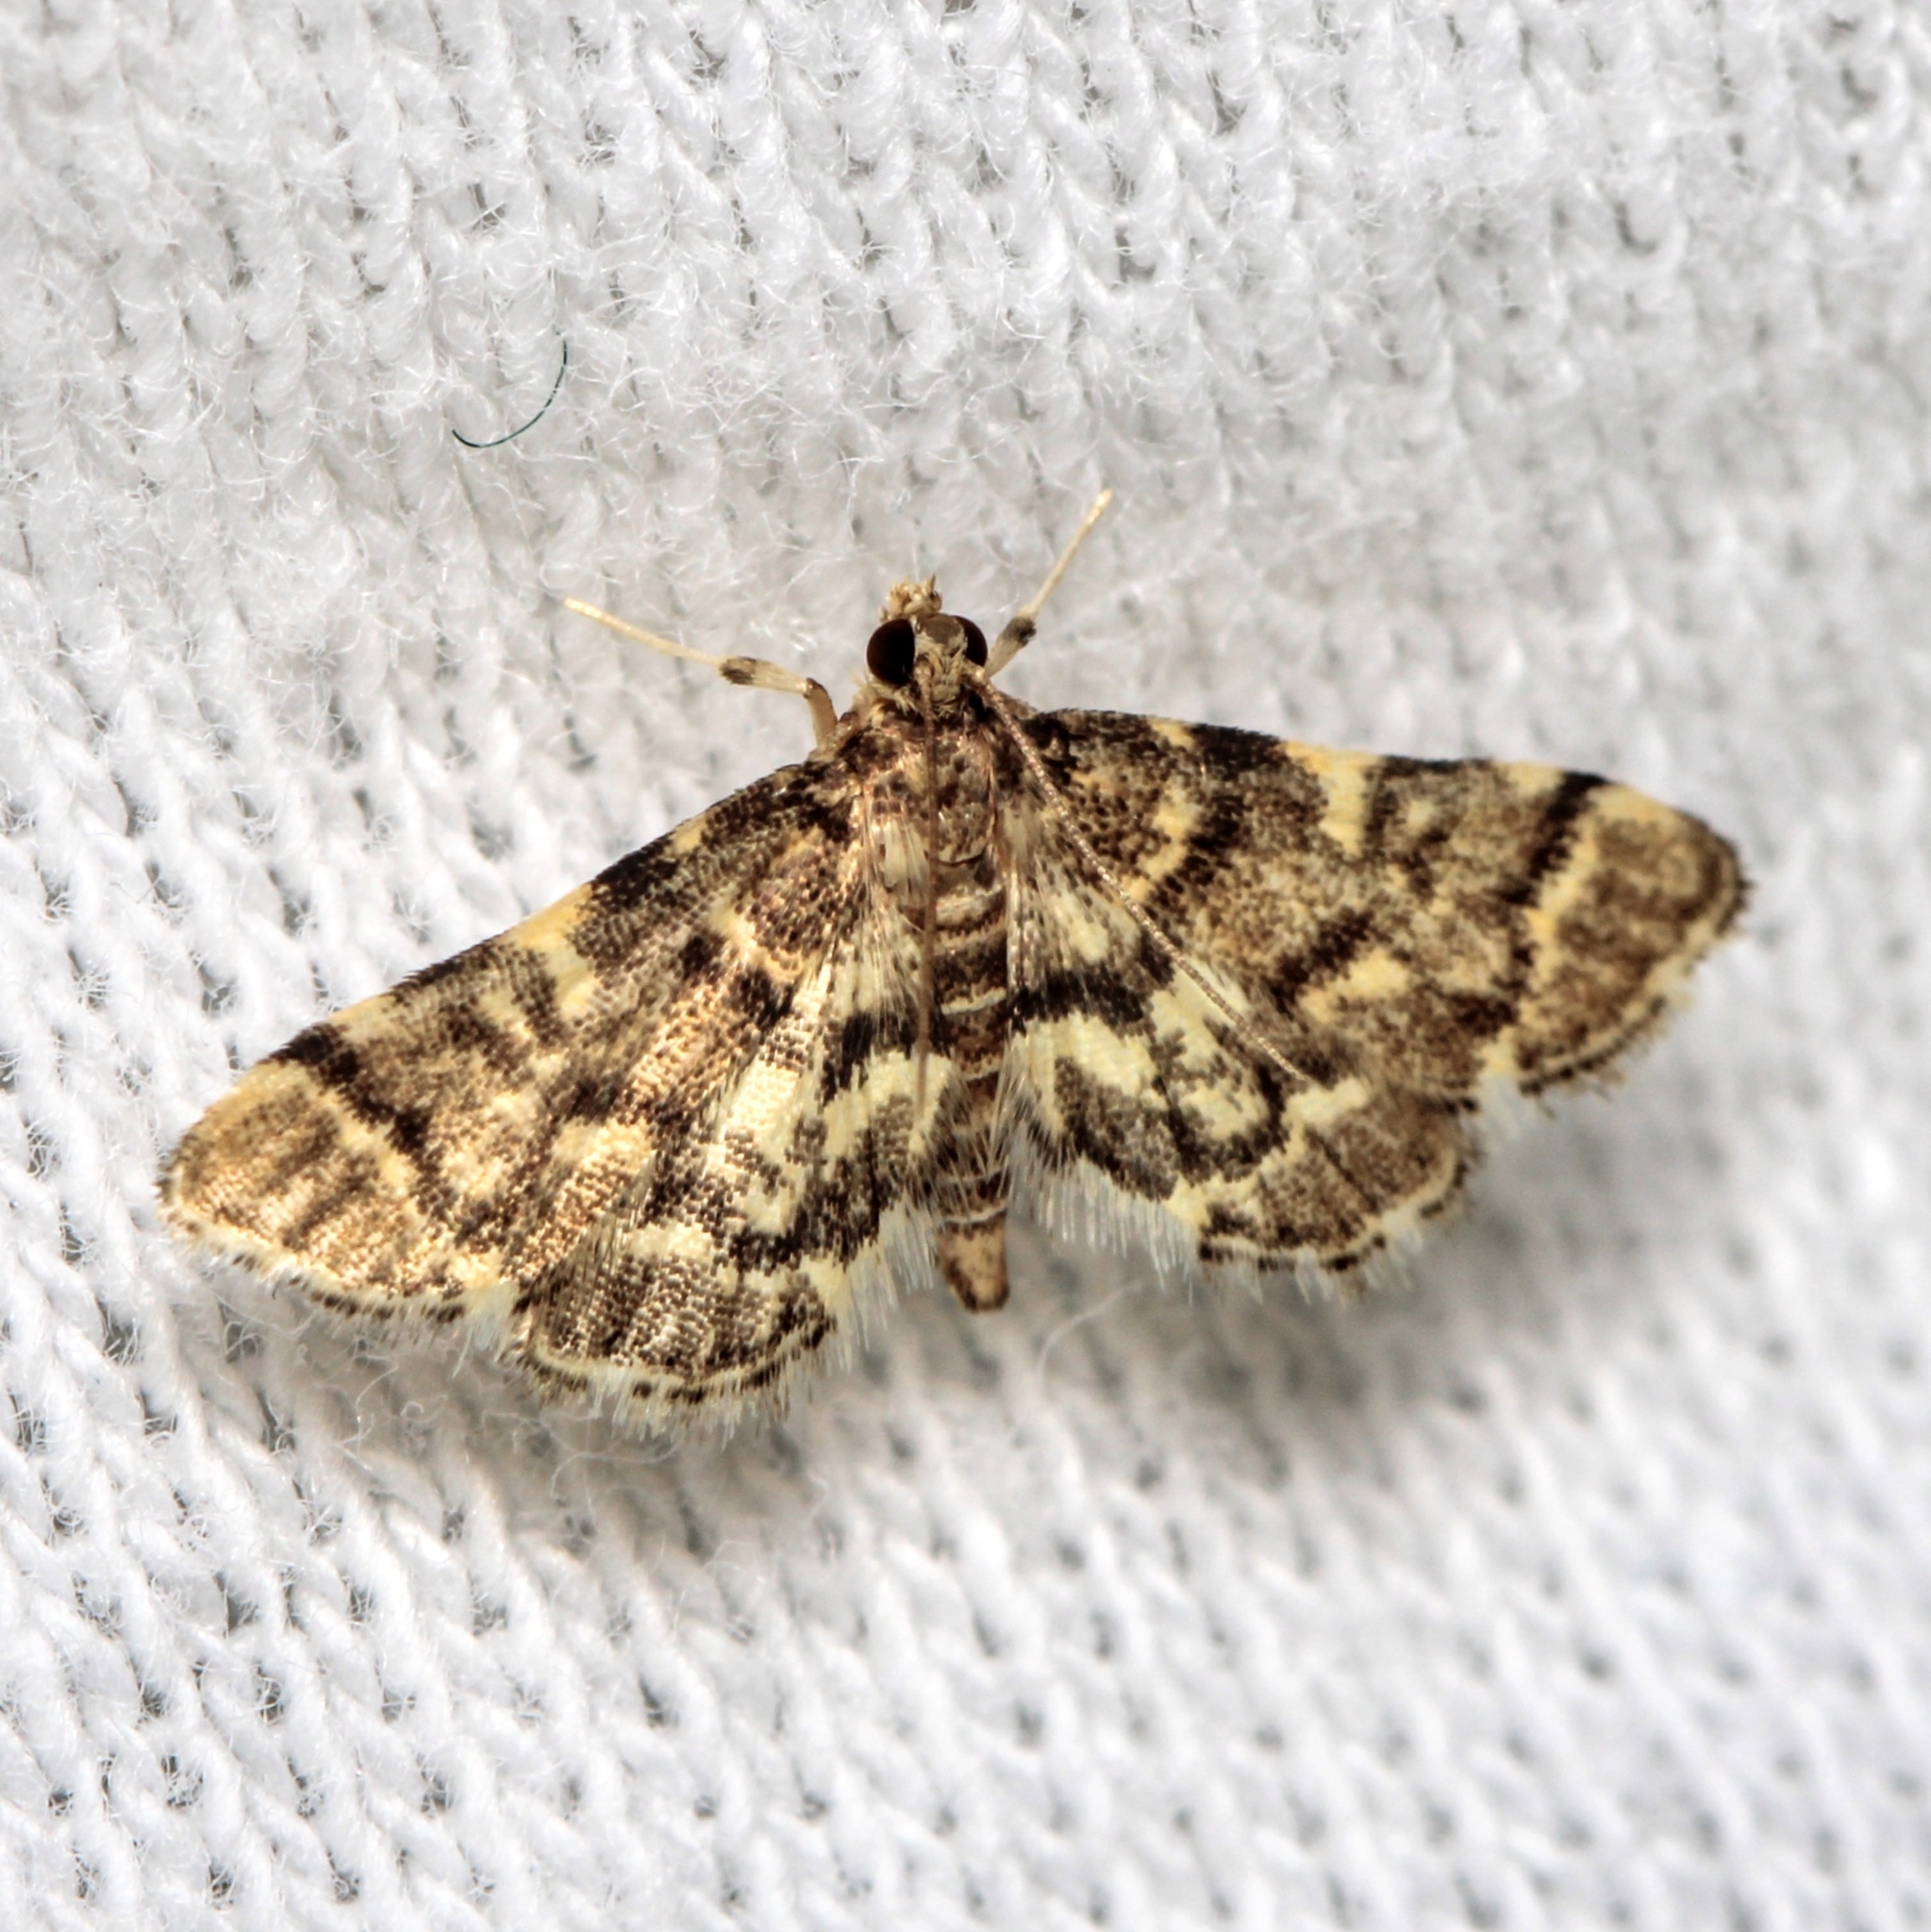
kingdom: Animalia
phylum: Arthropoda
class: Insecta
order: Lepidoptera
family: Crambidae
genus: Anageshna
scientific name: Anageshna primordialis
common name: Yellow-spotted webworm moth
